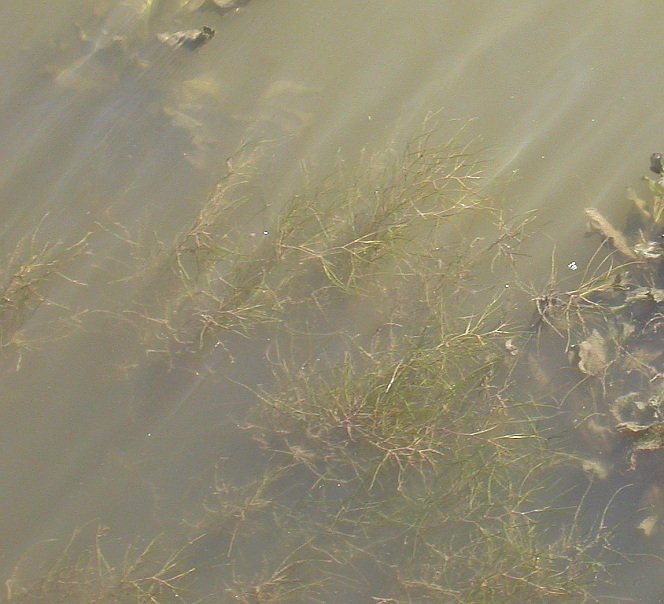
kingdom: Plantae
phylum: Tracheophyta
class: Liliopsida
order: Alismatales
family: Potamogetonaceae
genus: Stuckenia
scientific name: Stuckenia pectinata
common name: Sago pondweed
